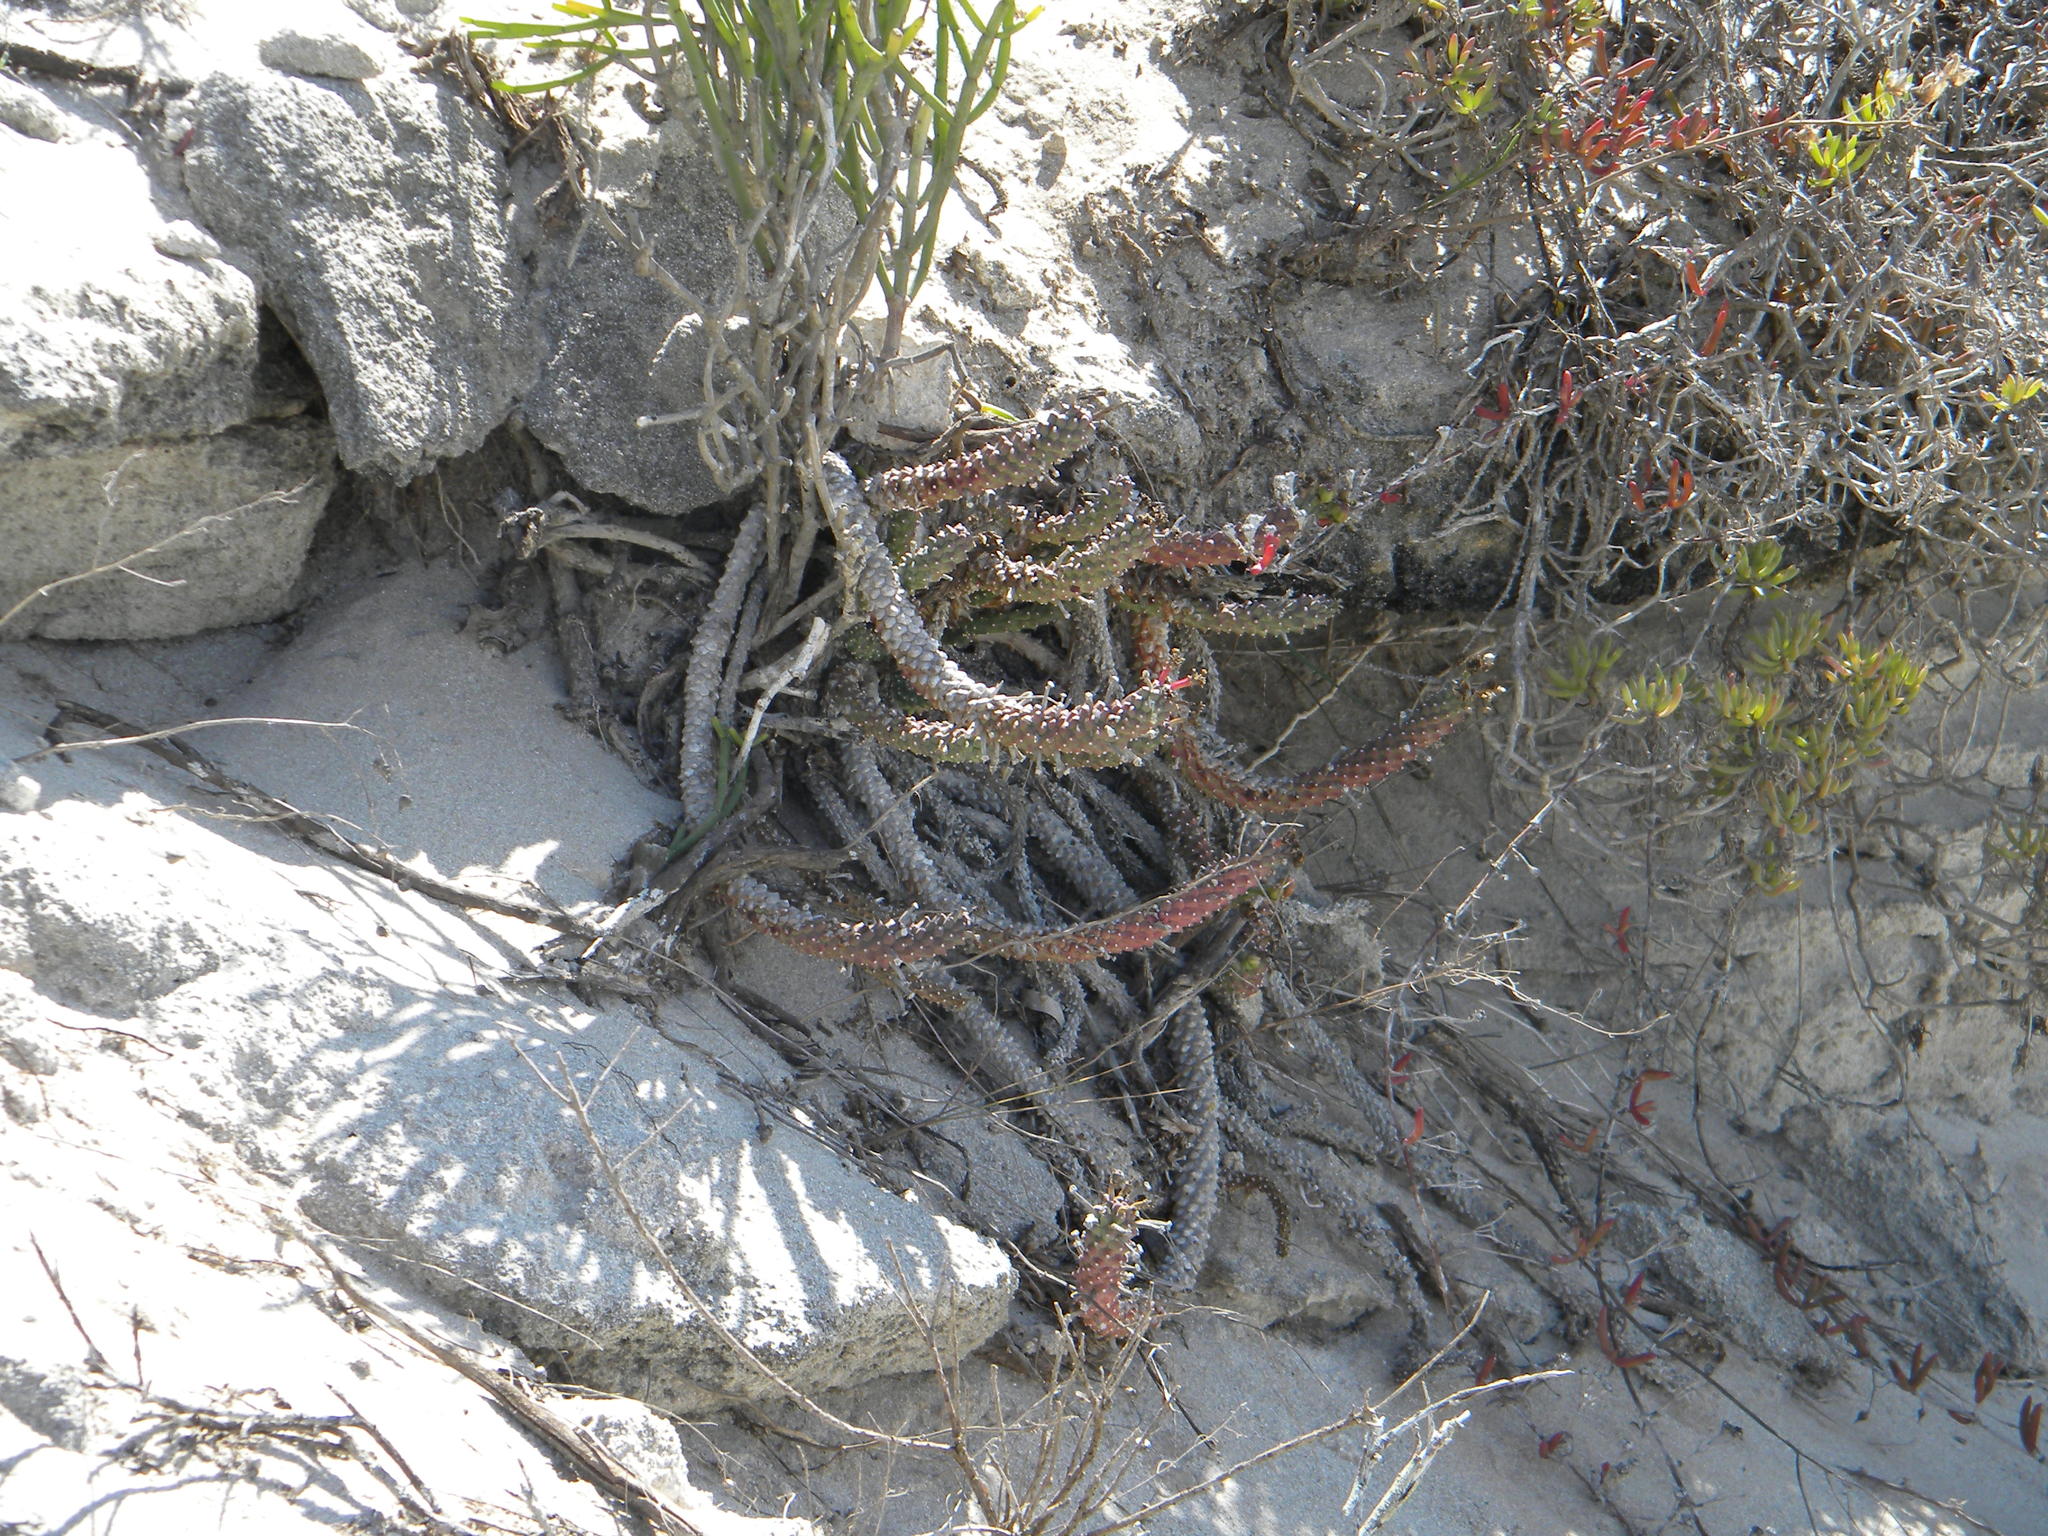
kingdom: Plantae
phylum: Tracheophyta
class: Magnoliopsida
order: Malpighiales
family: Euphorbiaceae
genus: Euphorbia
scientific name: Euphorbia caput-medusae
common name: Medusa's-head
